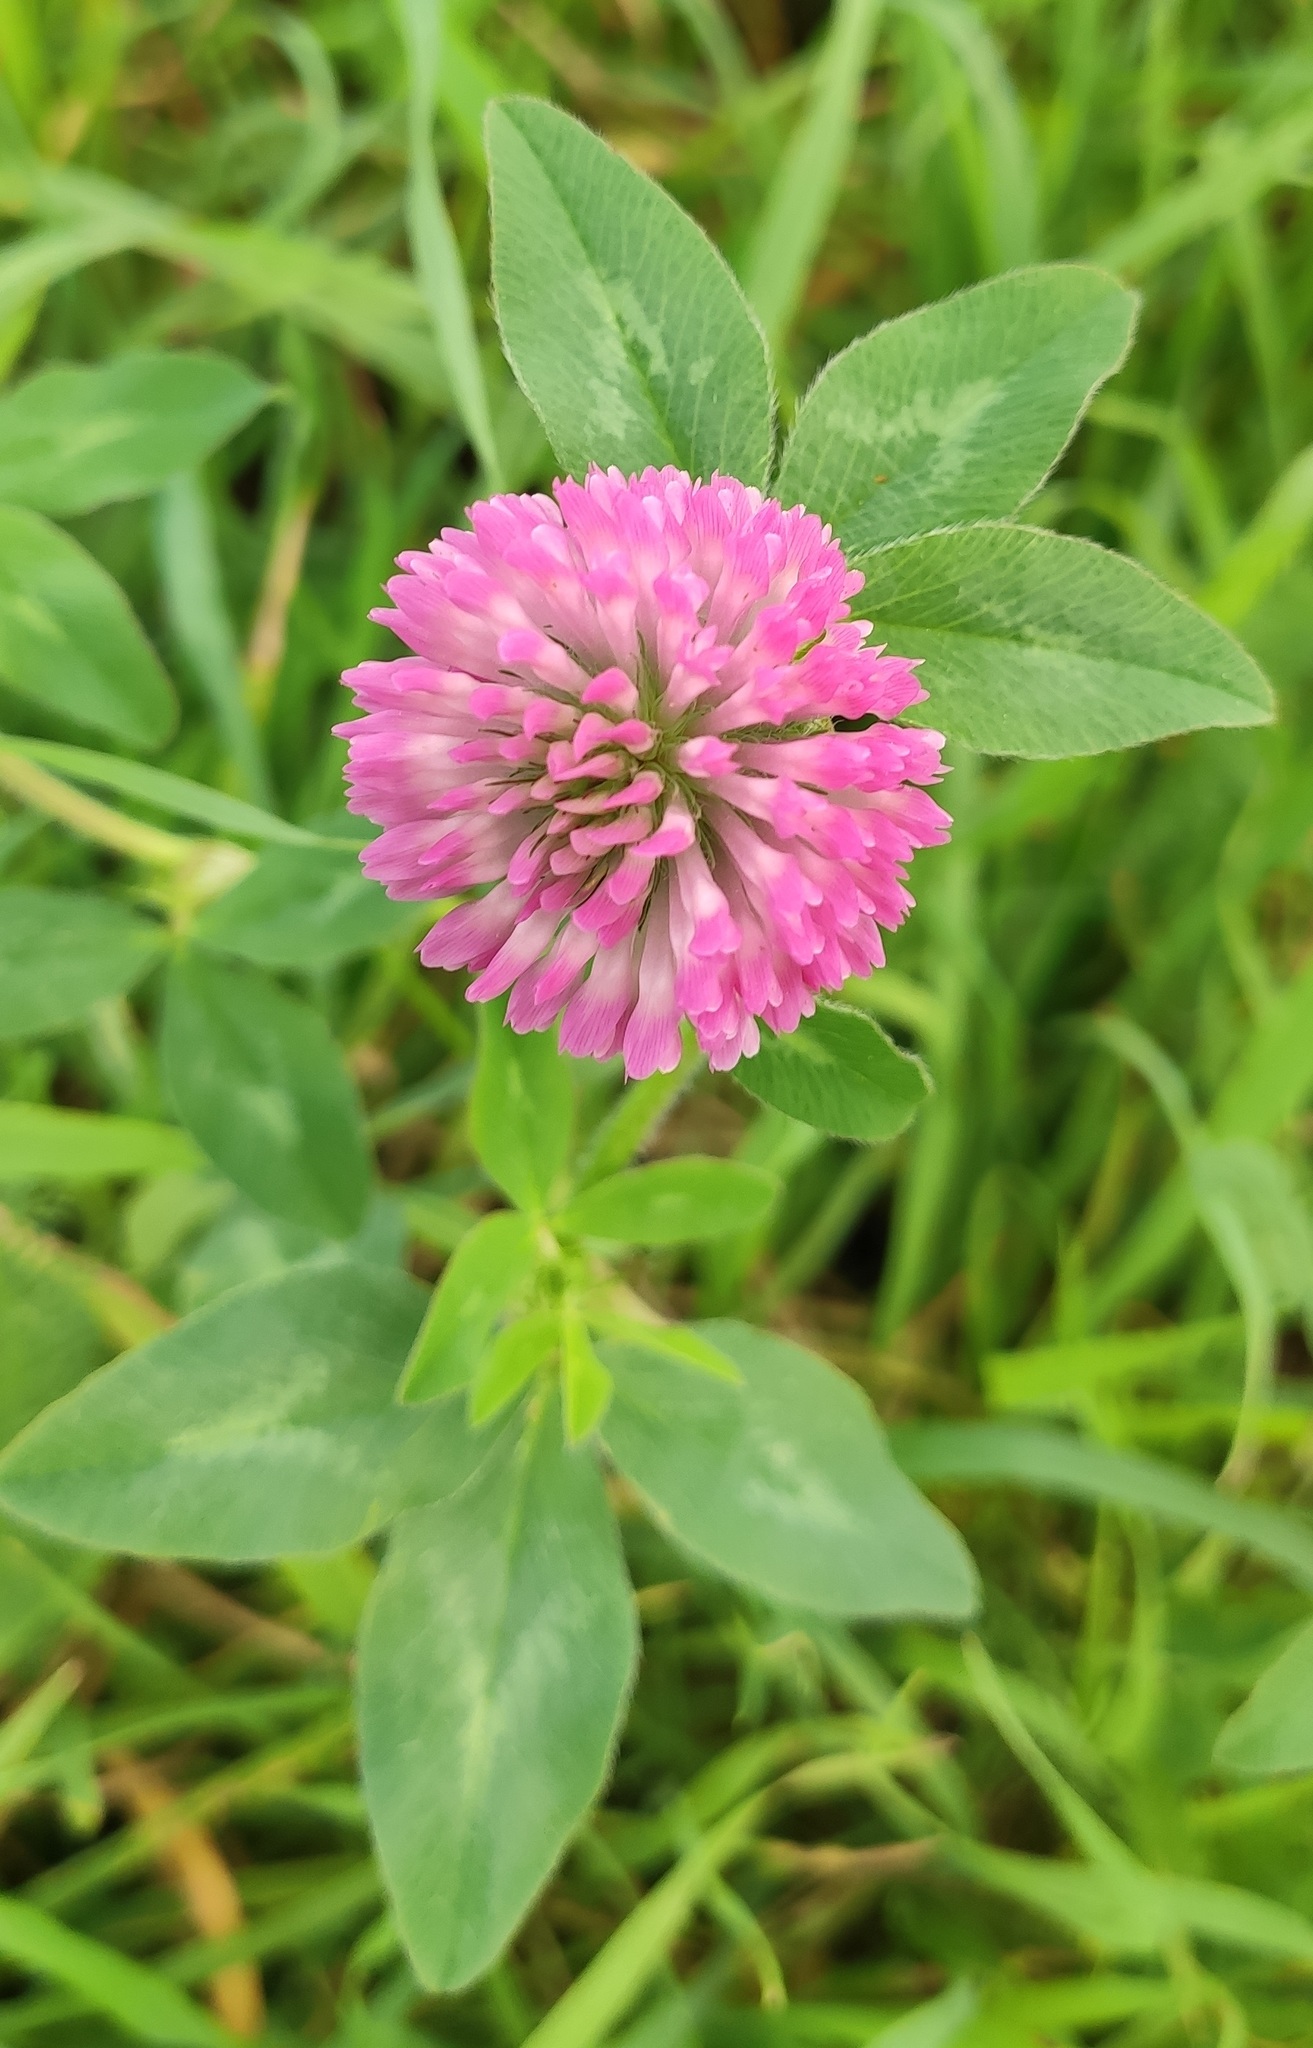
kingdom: Plantae
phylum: Tracheophyta
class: Magnoliopsida
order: Fabales
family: Fabaceae
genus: Trifolium
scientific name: Trifolium pratense
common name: Red clover
